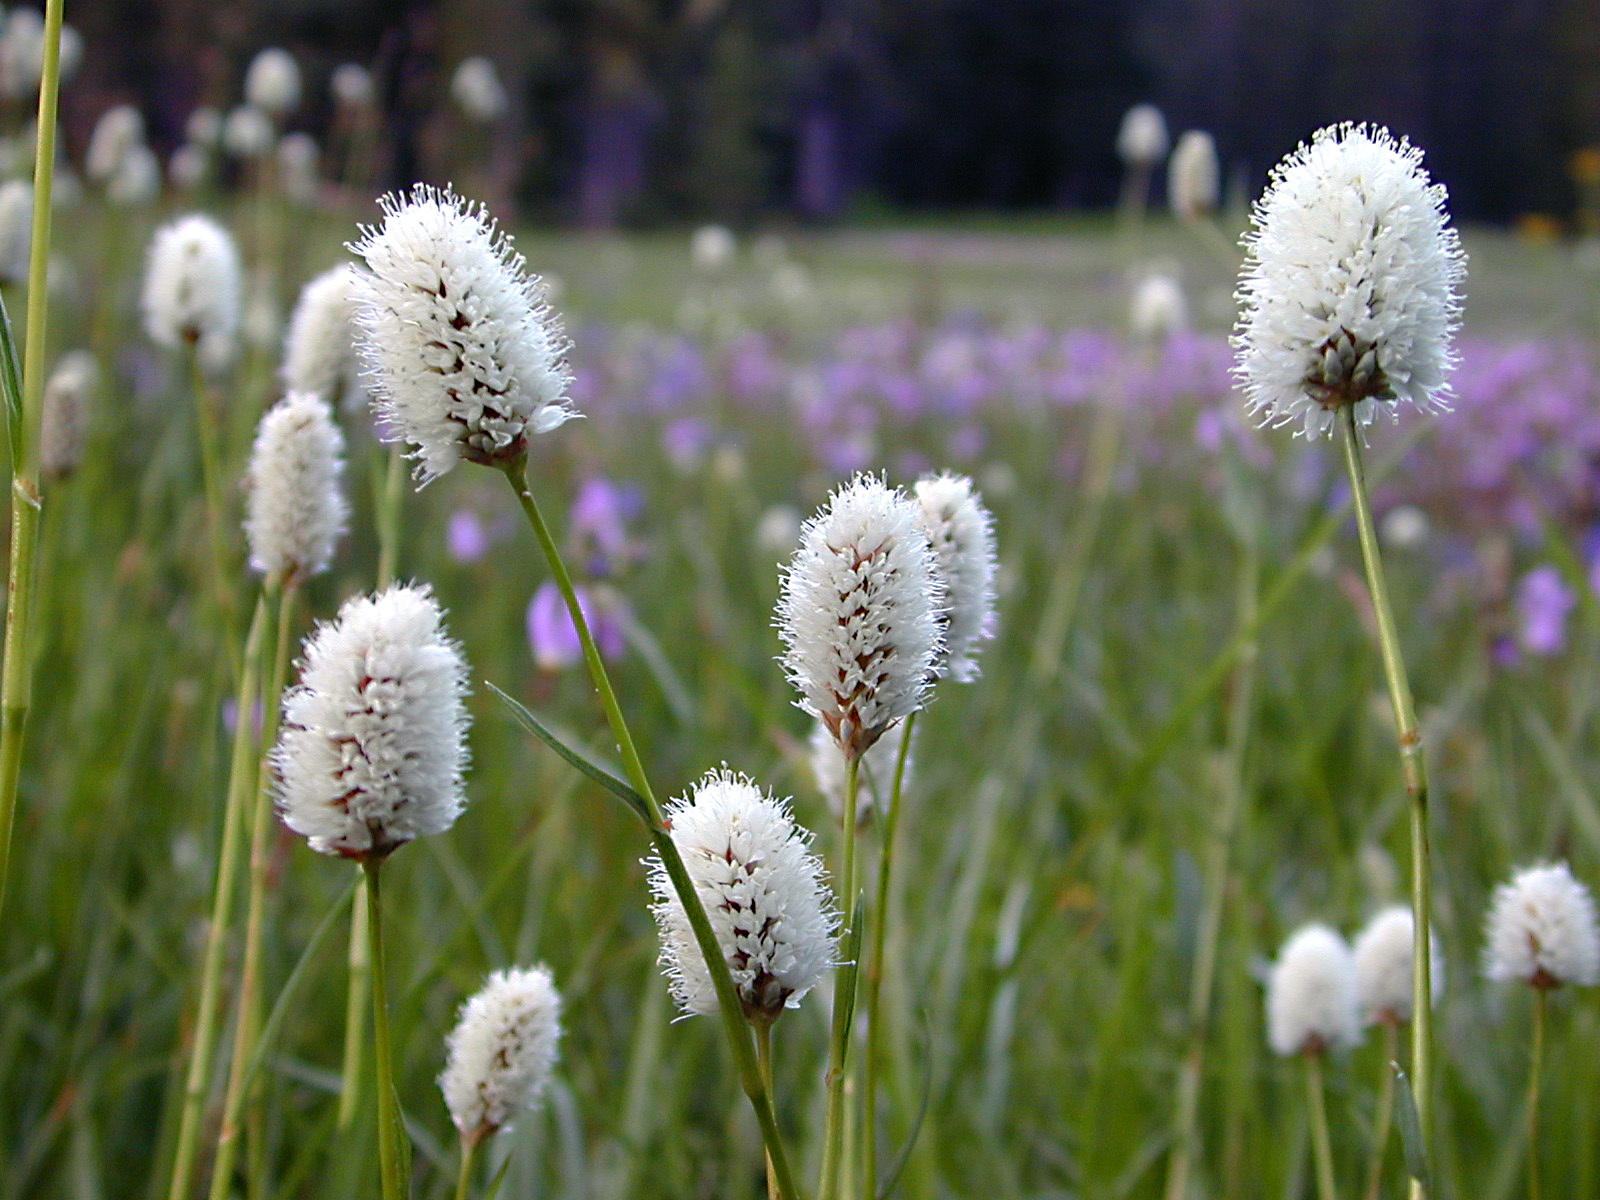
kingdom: Plantae
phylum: Tracheophyta
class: Magnoliopsida
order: Caryophyllales
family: Polygonaceae
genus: Bistorta
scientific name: Bistorta bistortoides
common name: American bistort
